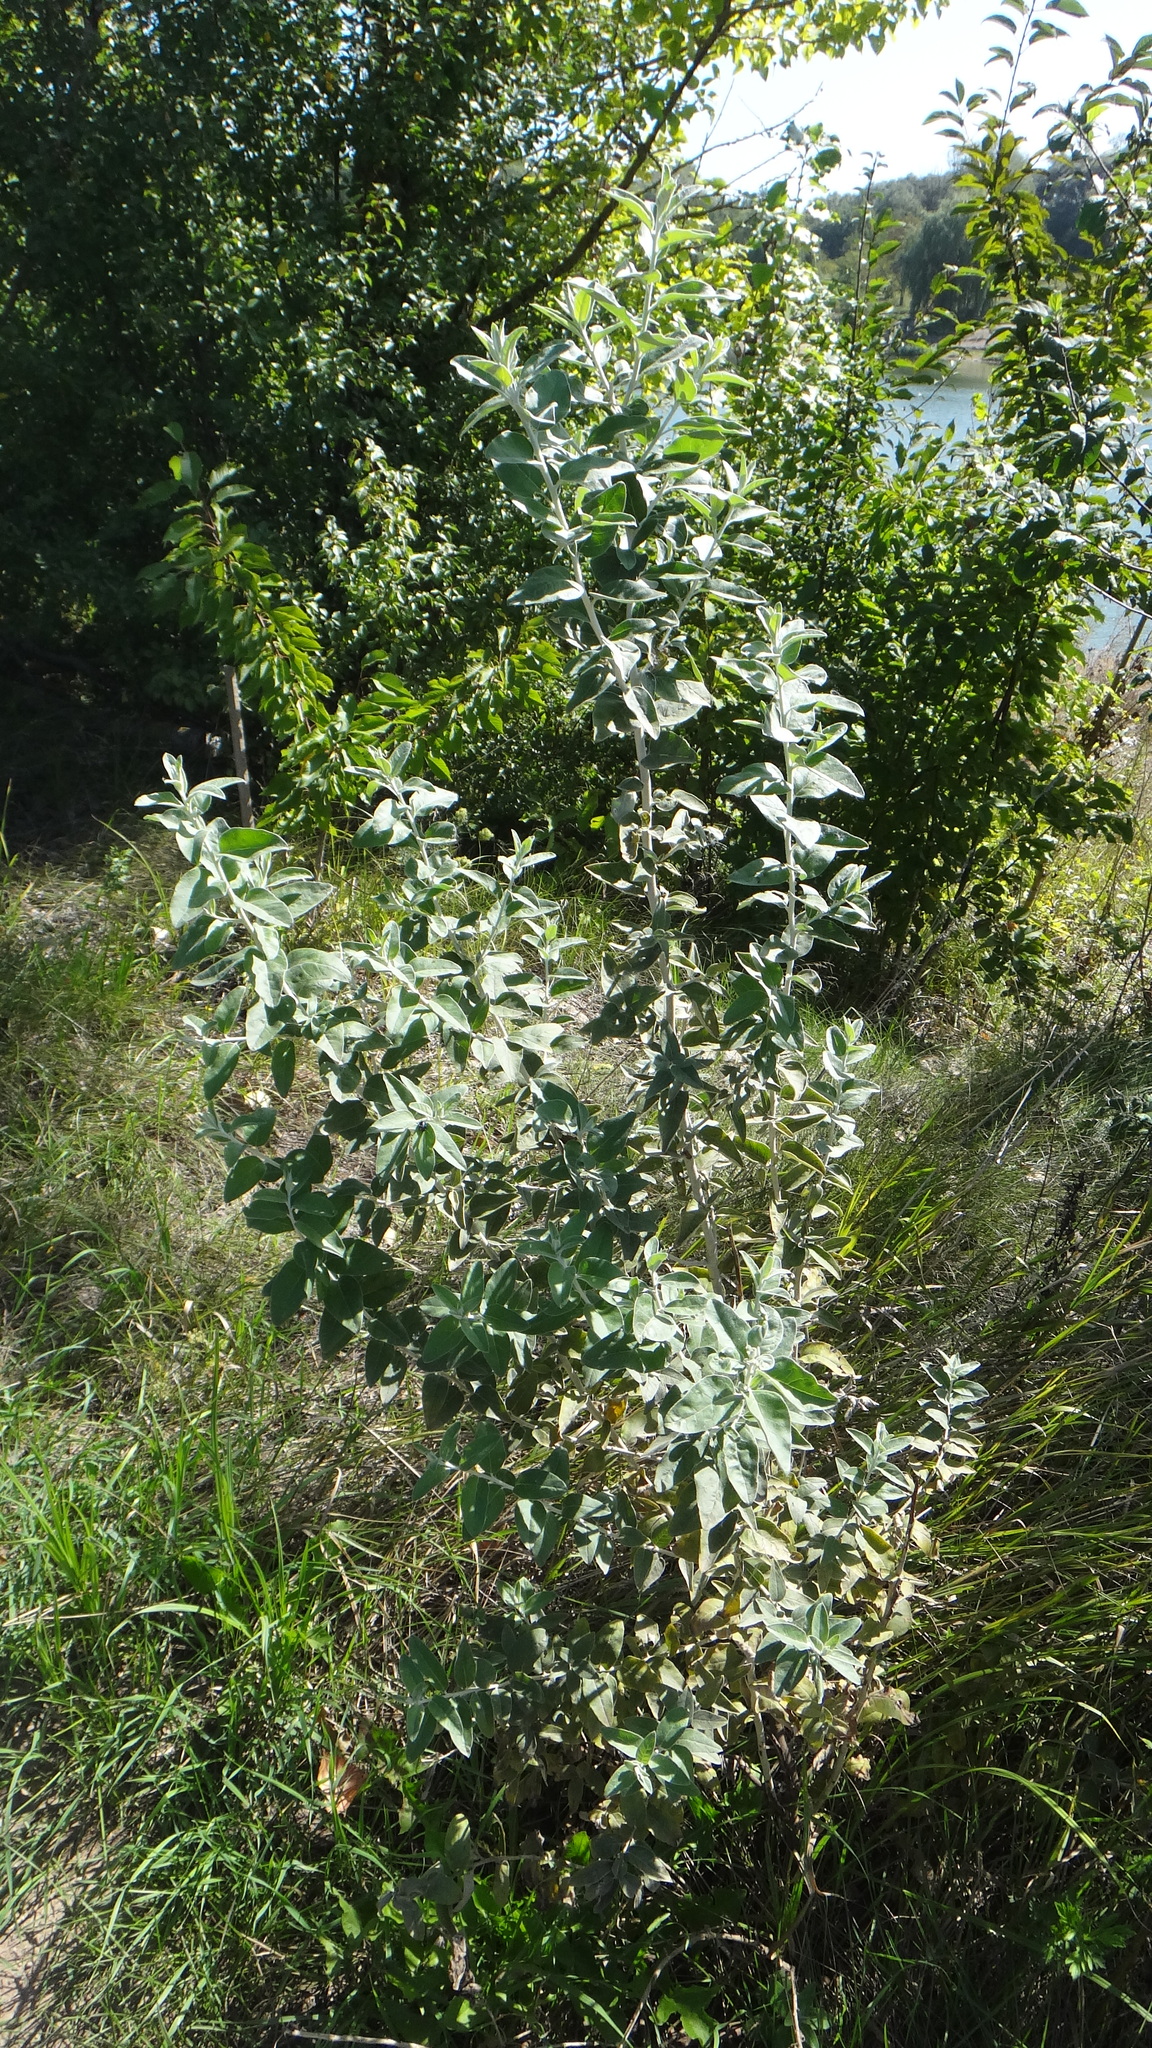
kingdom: Plantae
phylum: Tracheophyta
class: Magnoliopsida
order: Rosales
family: Elaeagnaceae
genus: Elaeagnus
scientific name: Elaeagnus angustifolia
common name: Russian olive
